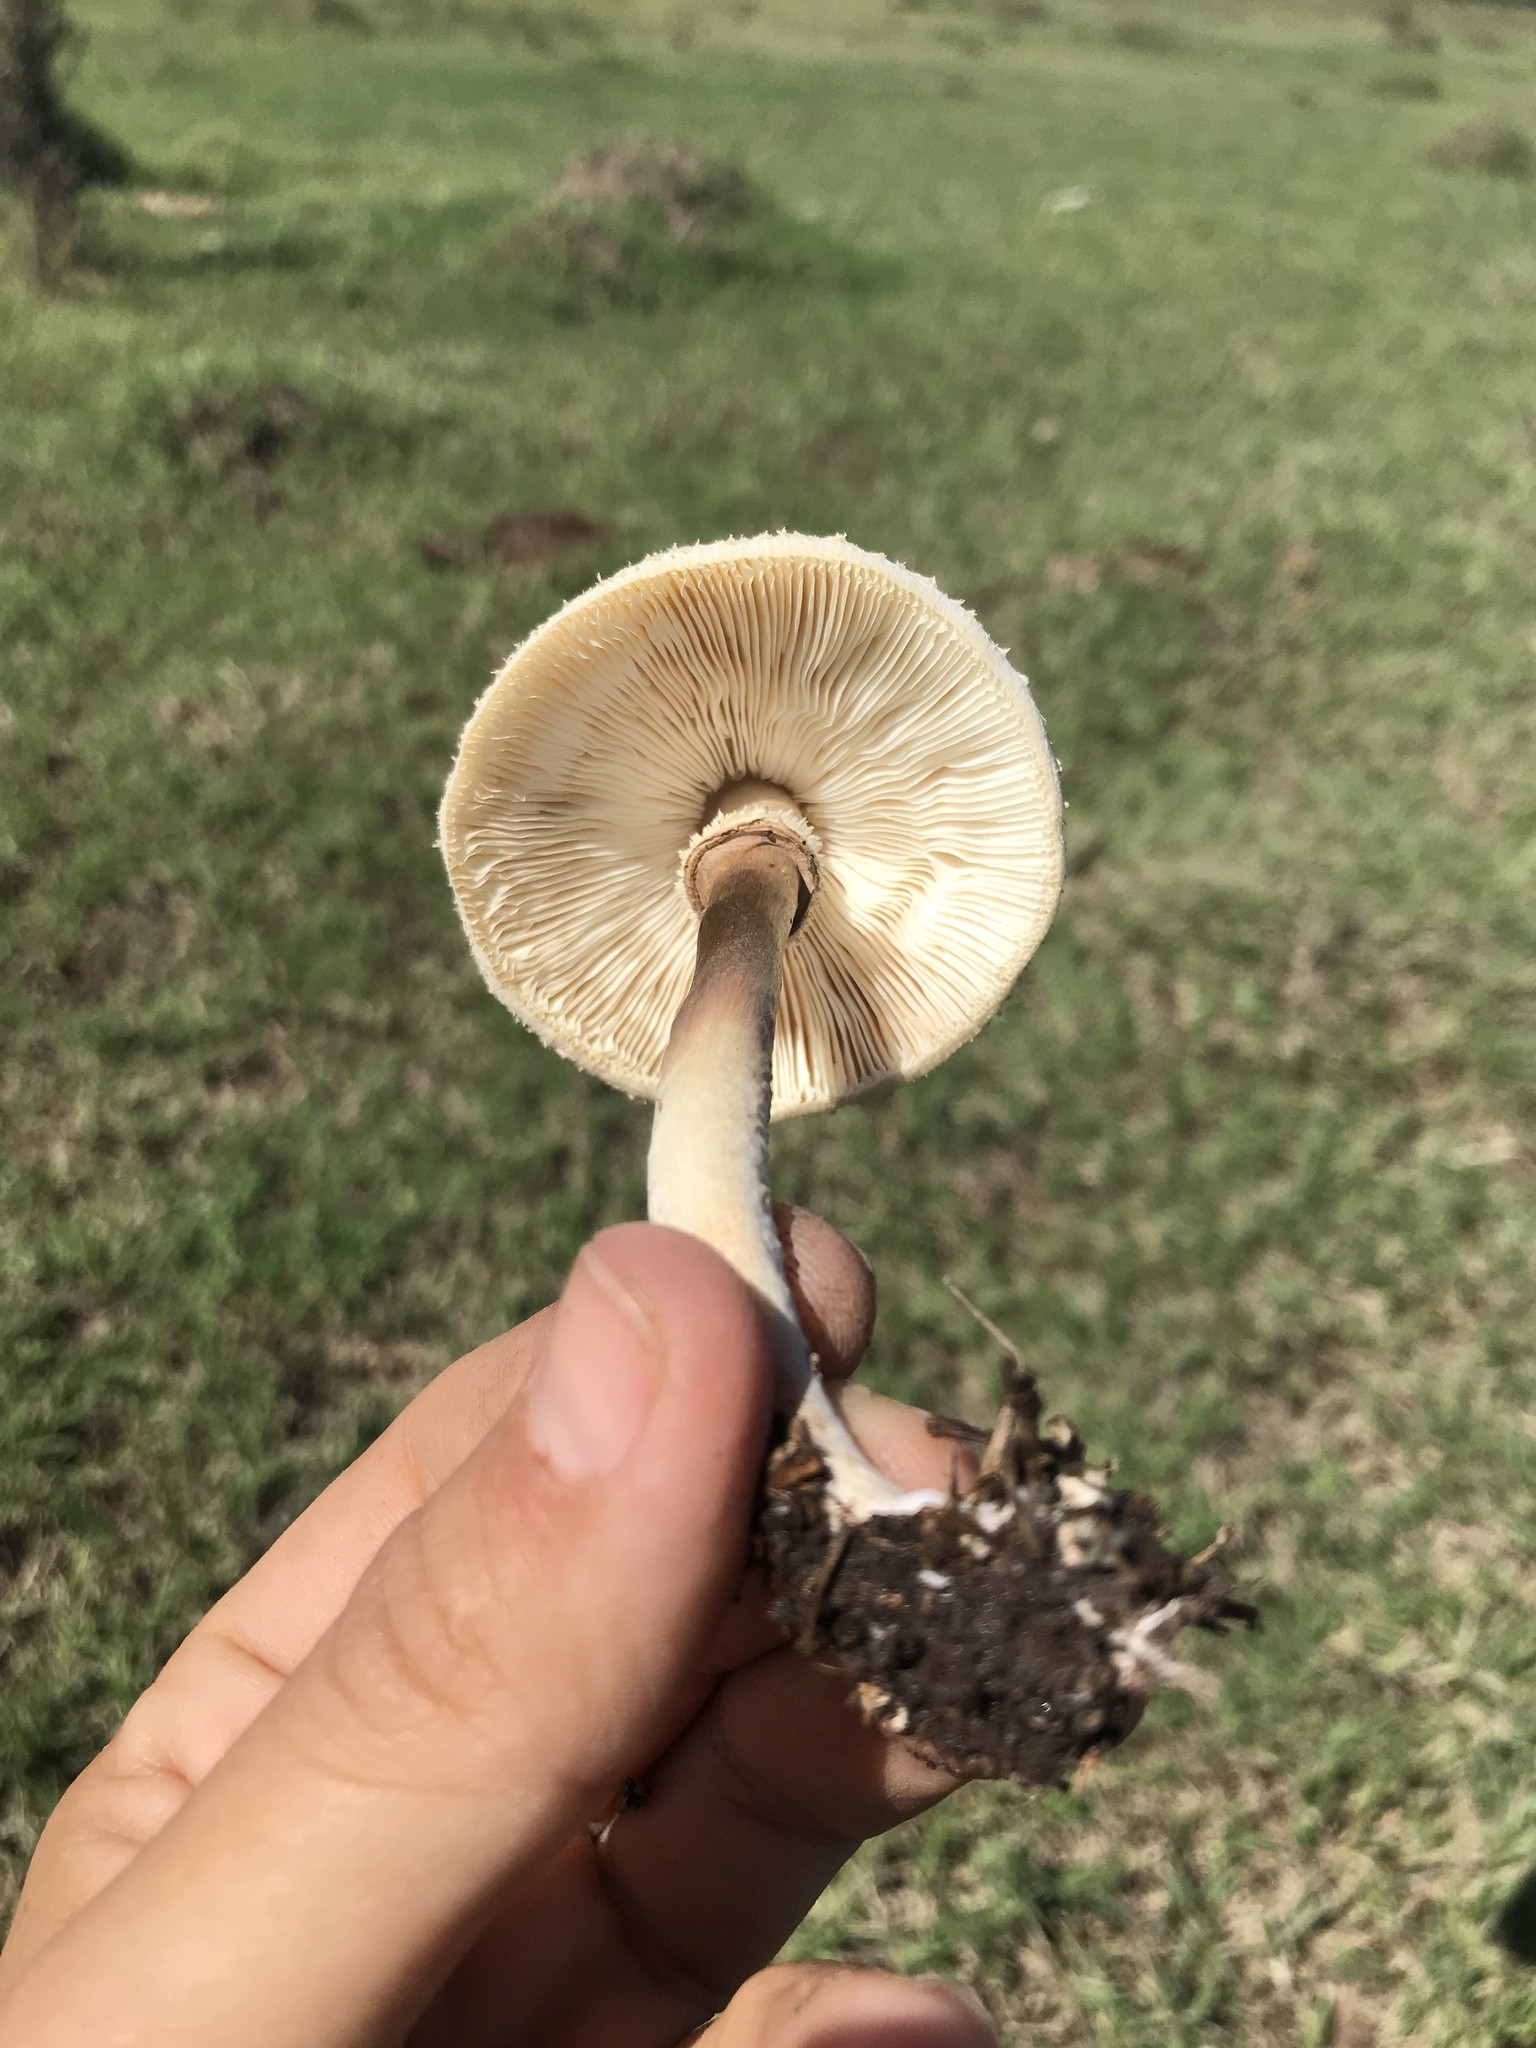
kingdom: Fungi
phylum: Basidiomycota
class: Agaricomycetes
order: Agaricales
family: Agaricaceae
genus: Chlorophyllum
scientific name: Chlorophyllum hortense
